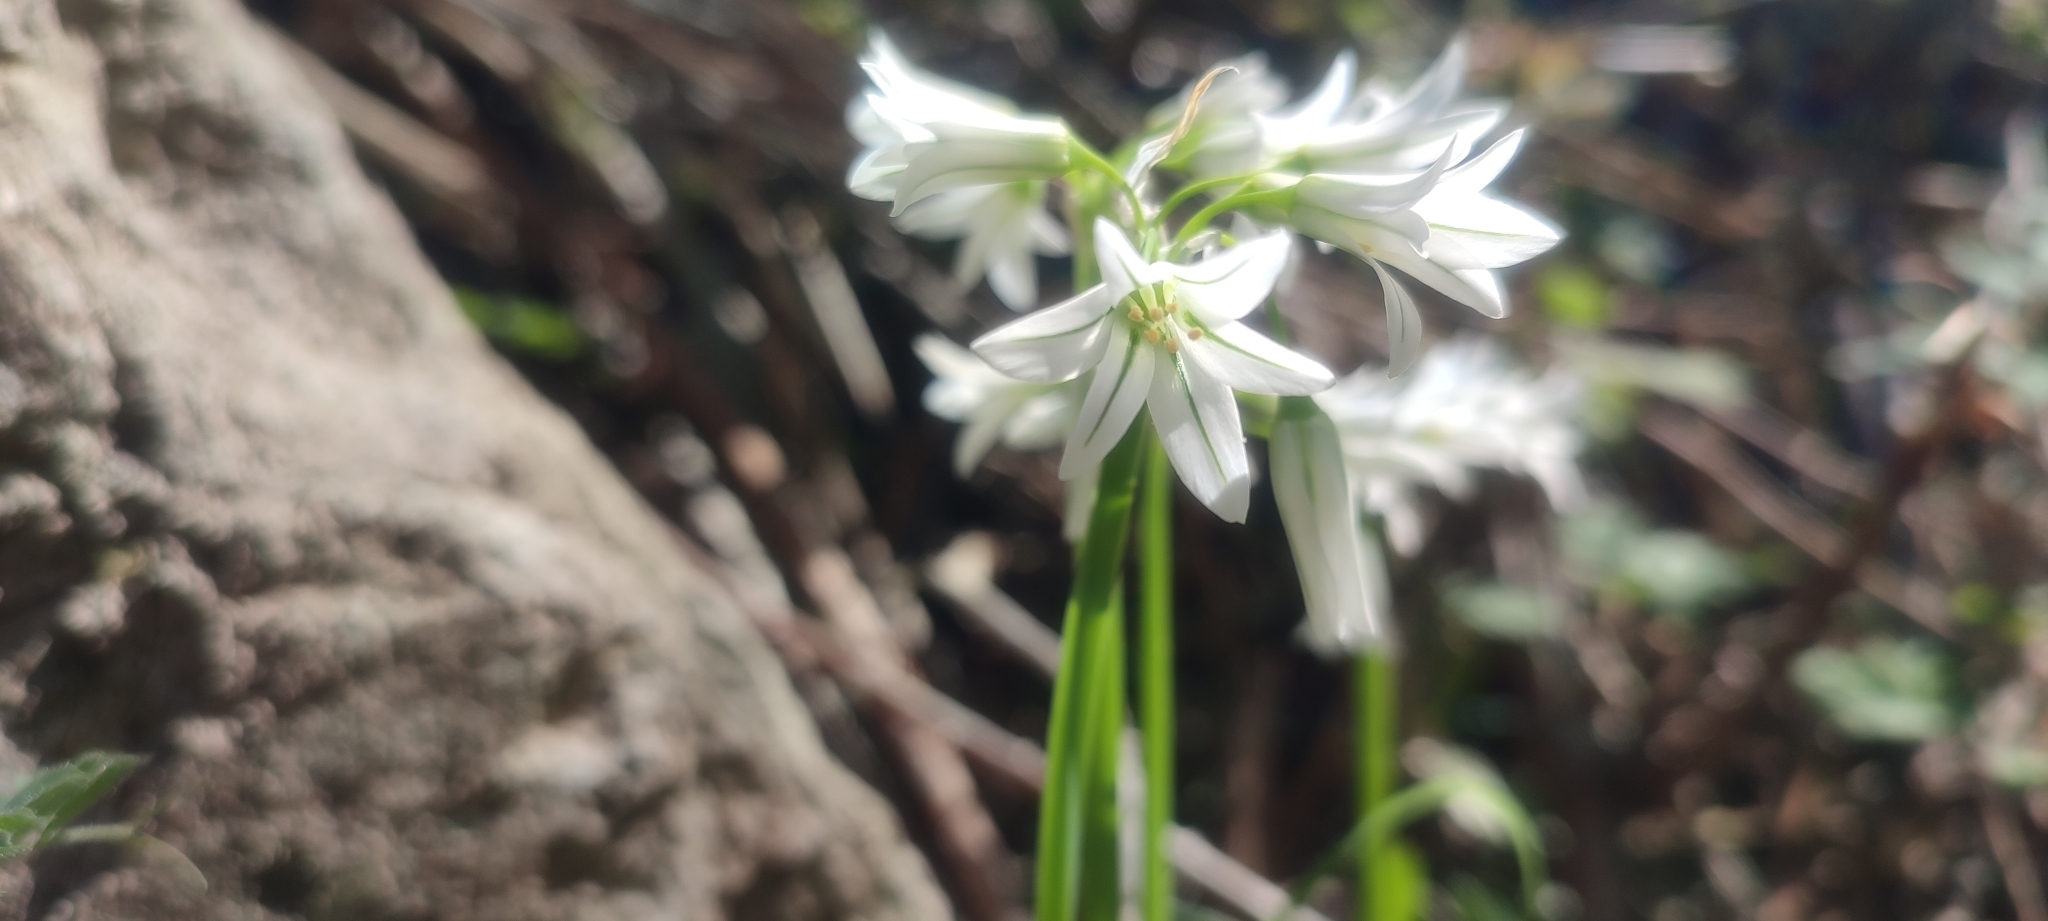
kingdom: Plantae
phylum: Tracheophyta
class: Liliopsida
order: Asparagales
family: Amaryllidaceae
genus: Allium
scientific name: Allium triquetrum
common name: Three-cornered garlic
